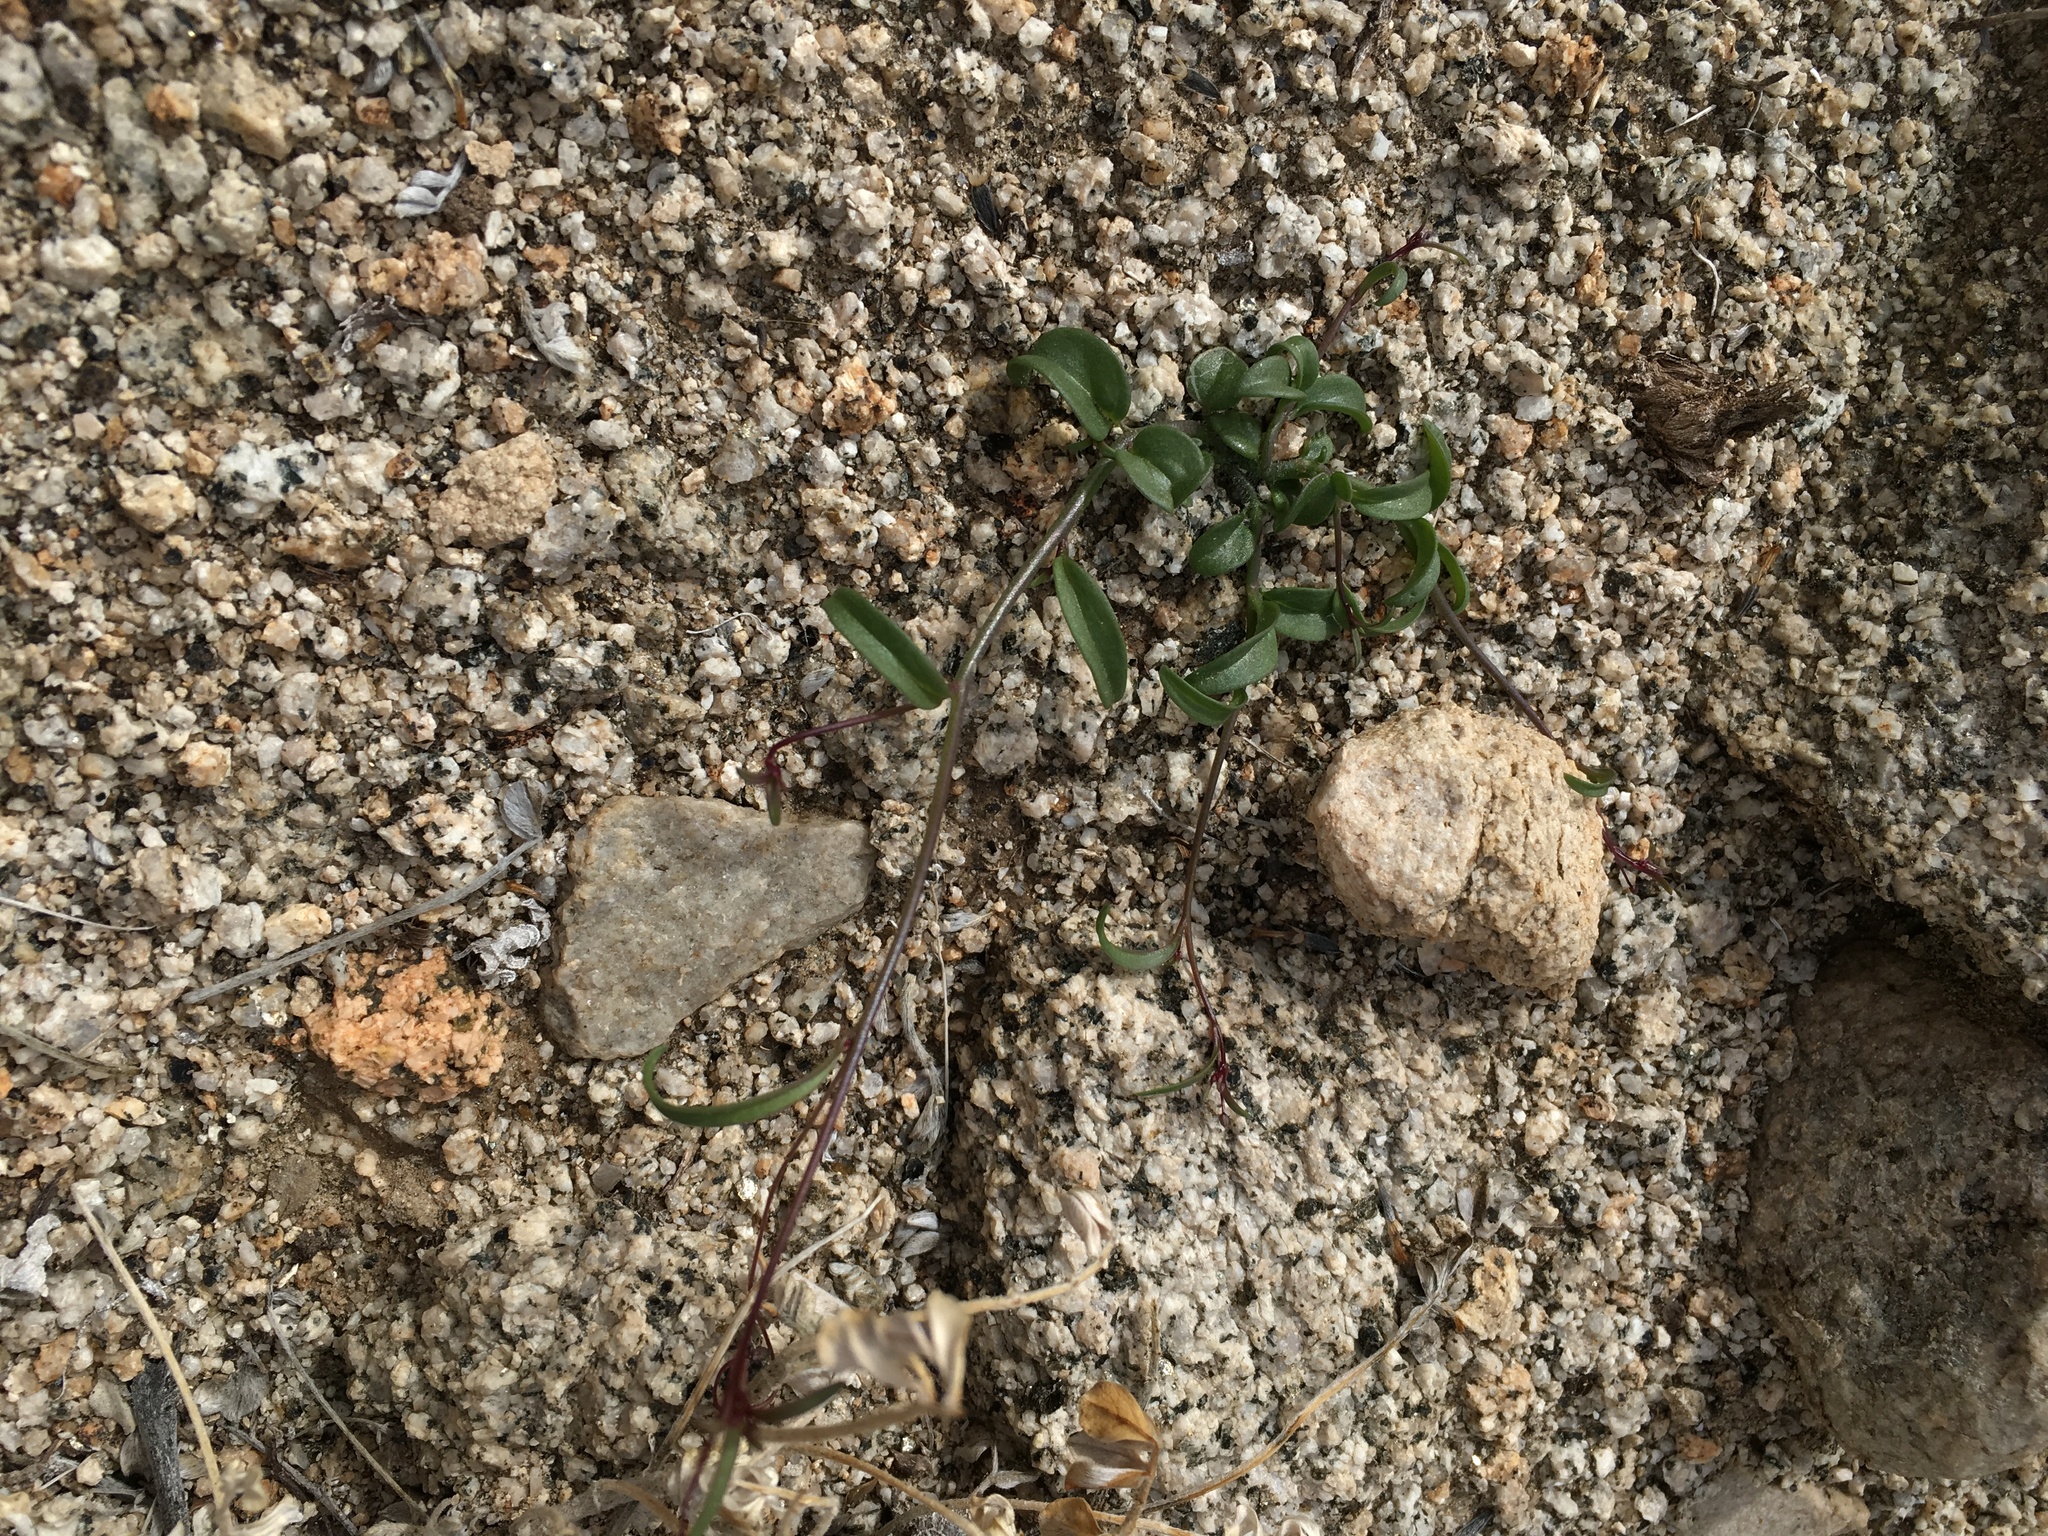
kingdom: Plantae
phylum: Tracheophyta
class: Magnoliopsida
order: Lamiales
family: Plantaginaceae
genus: Neogaerrhinum
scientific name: Neogaerrhinum filipes
